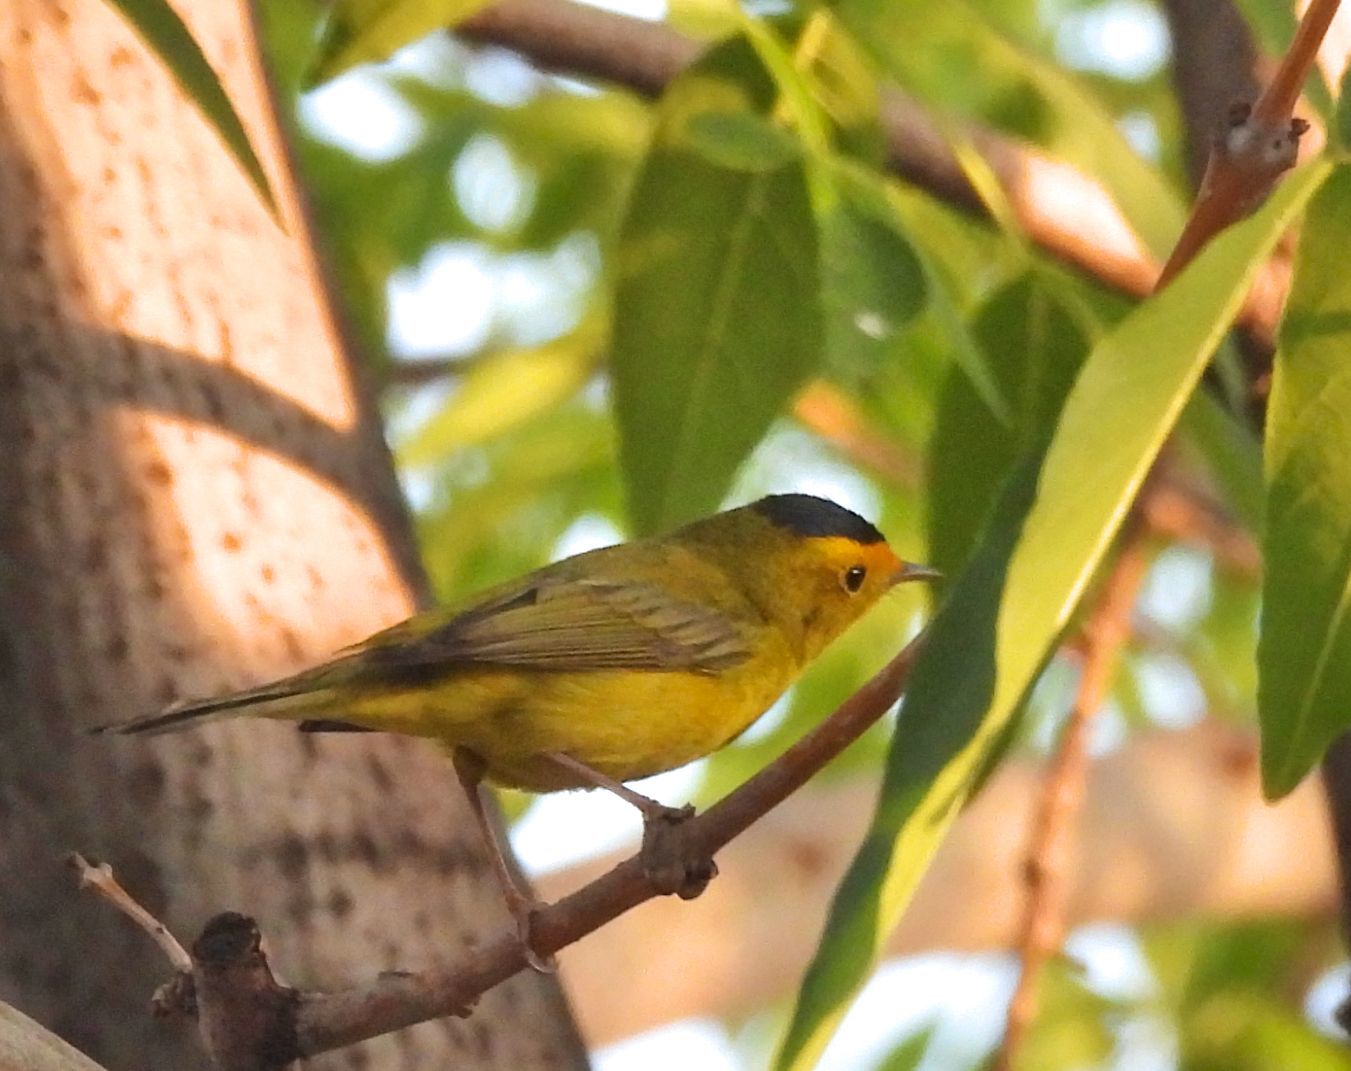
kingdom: Animalia
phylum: Chordata
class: Aves
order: Passeriformes
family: Parulidae
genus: Cardellina
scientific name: Cardellina pusilla
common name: Wilson's warbler
